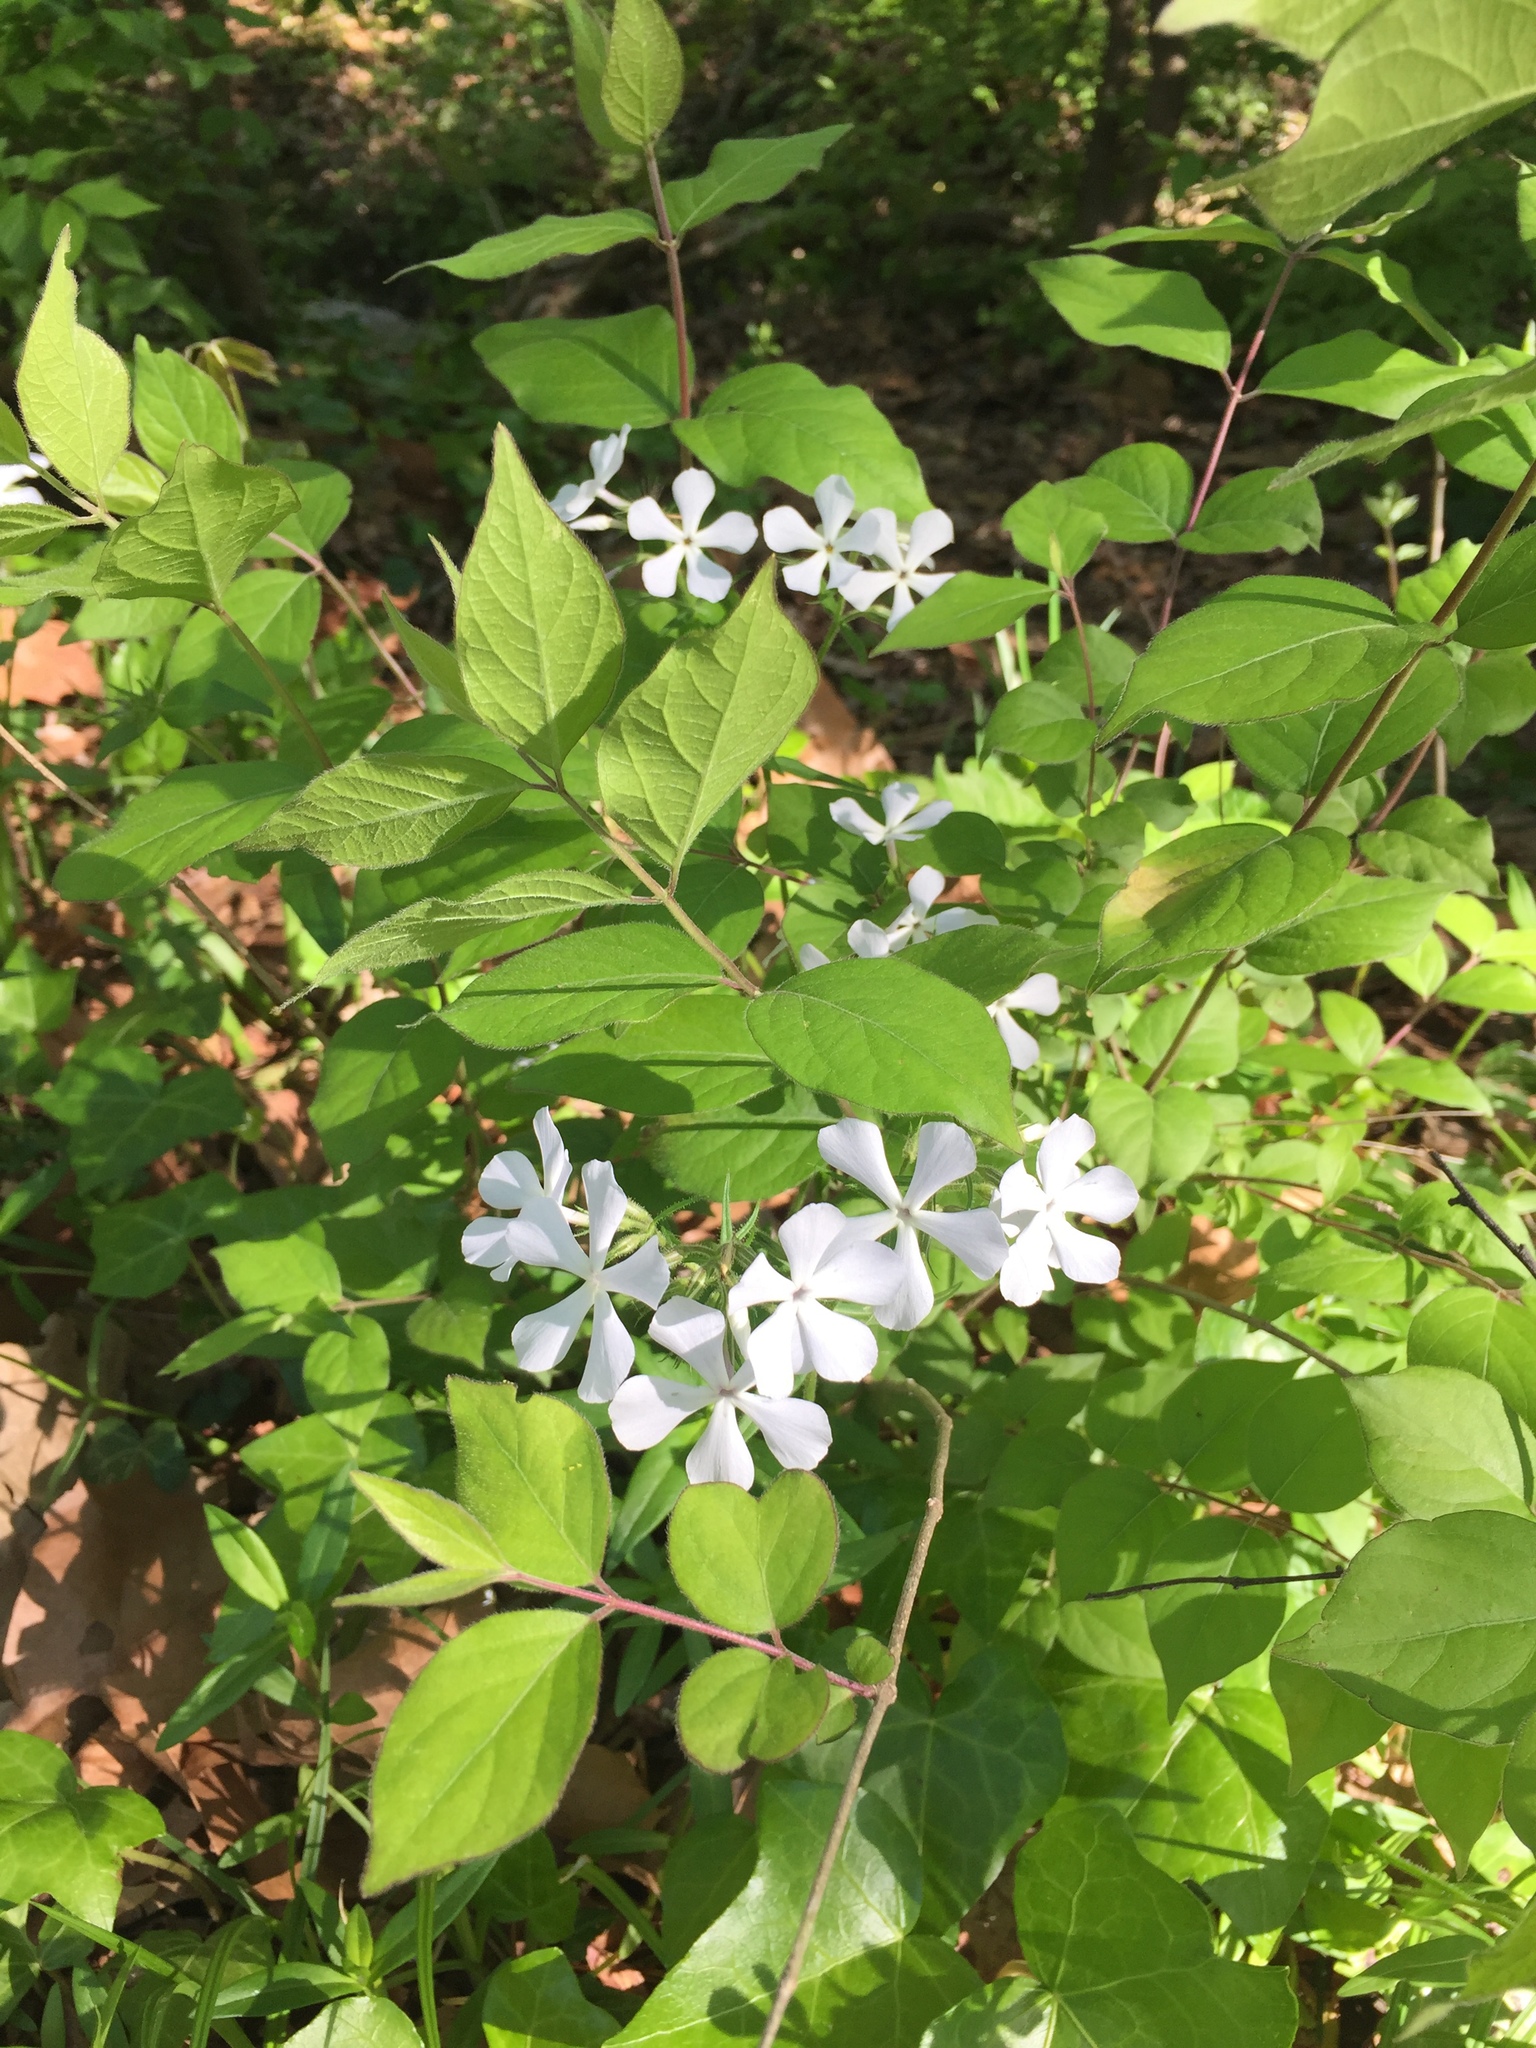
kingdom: Plantae
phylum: Tracheophyta
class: Magnoliopsida
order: Ericales
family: Polemoniaceae
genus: Phlox
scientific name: Phlox divaricata
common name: Blue phlox
